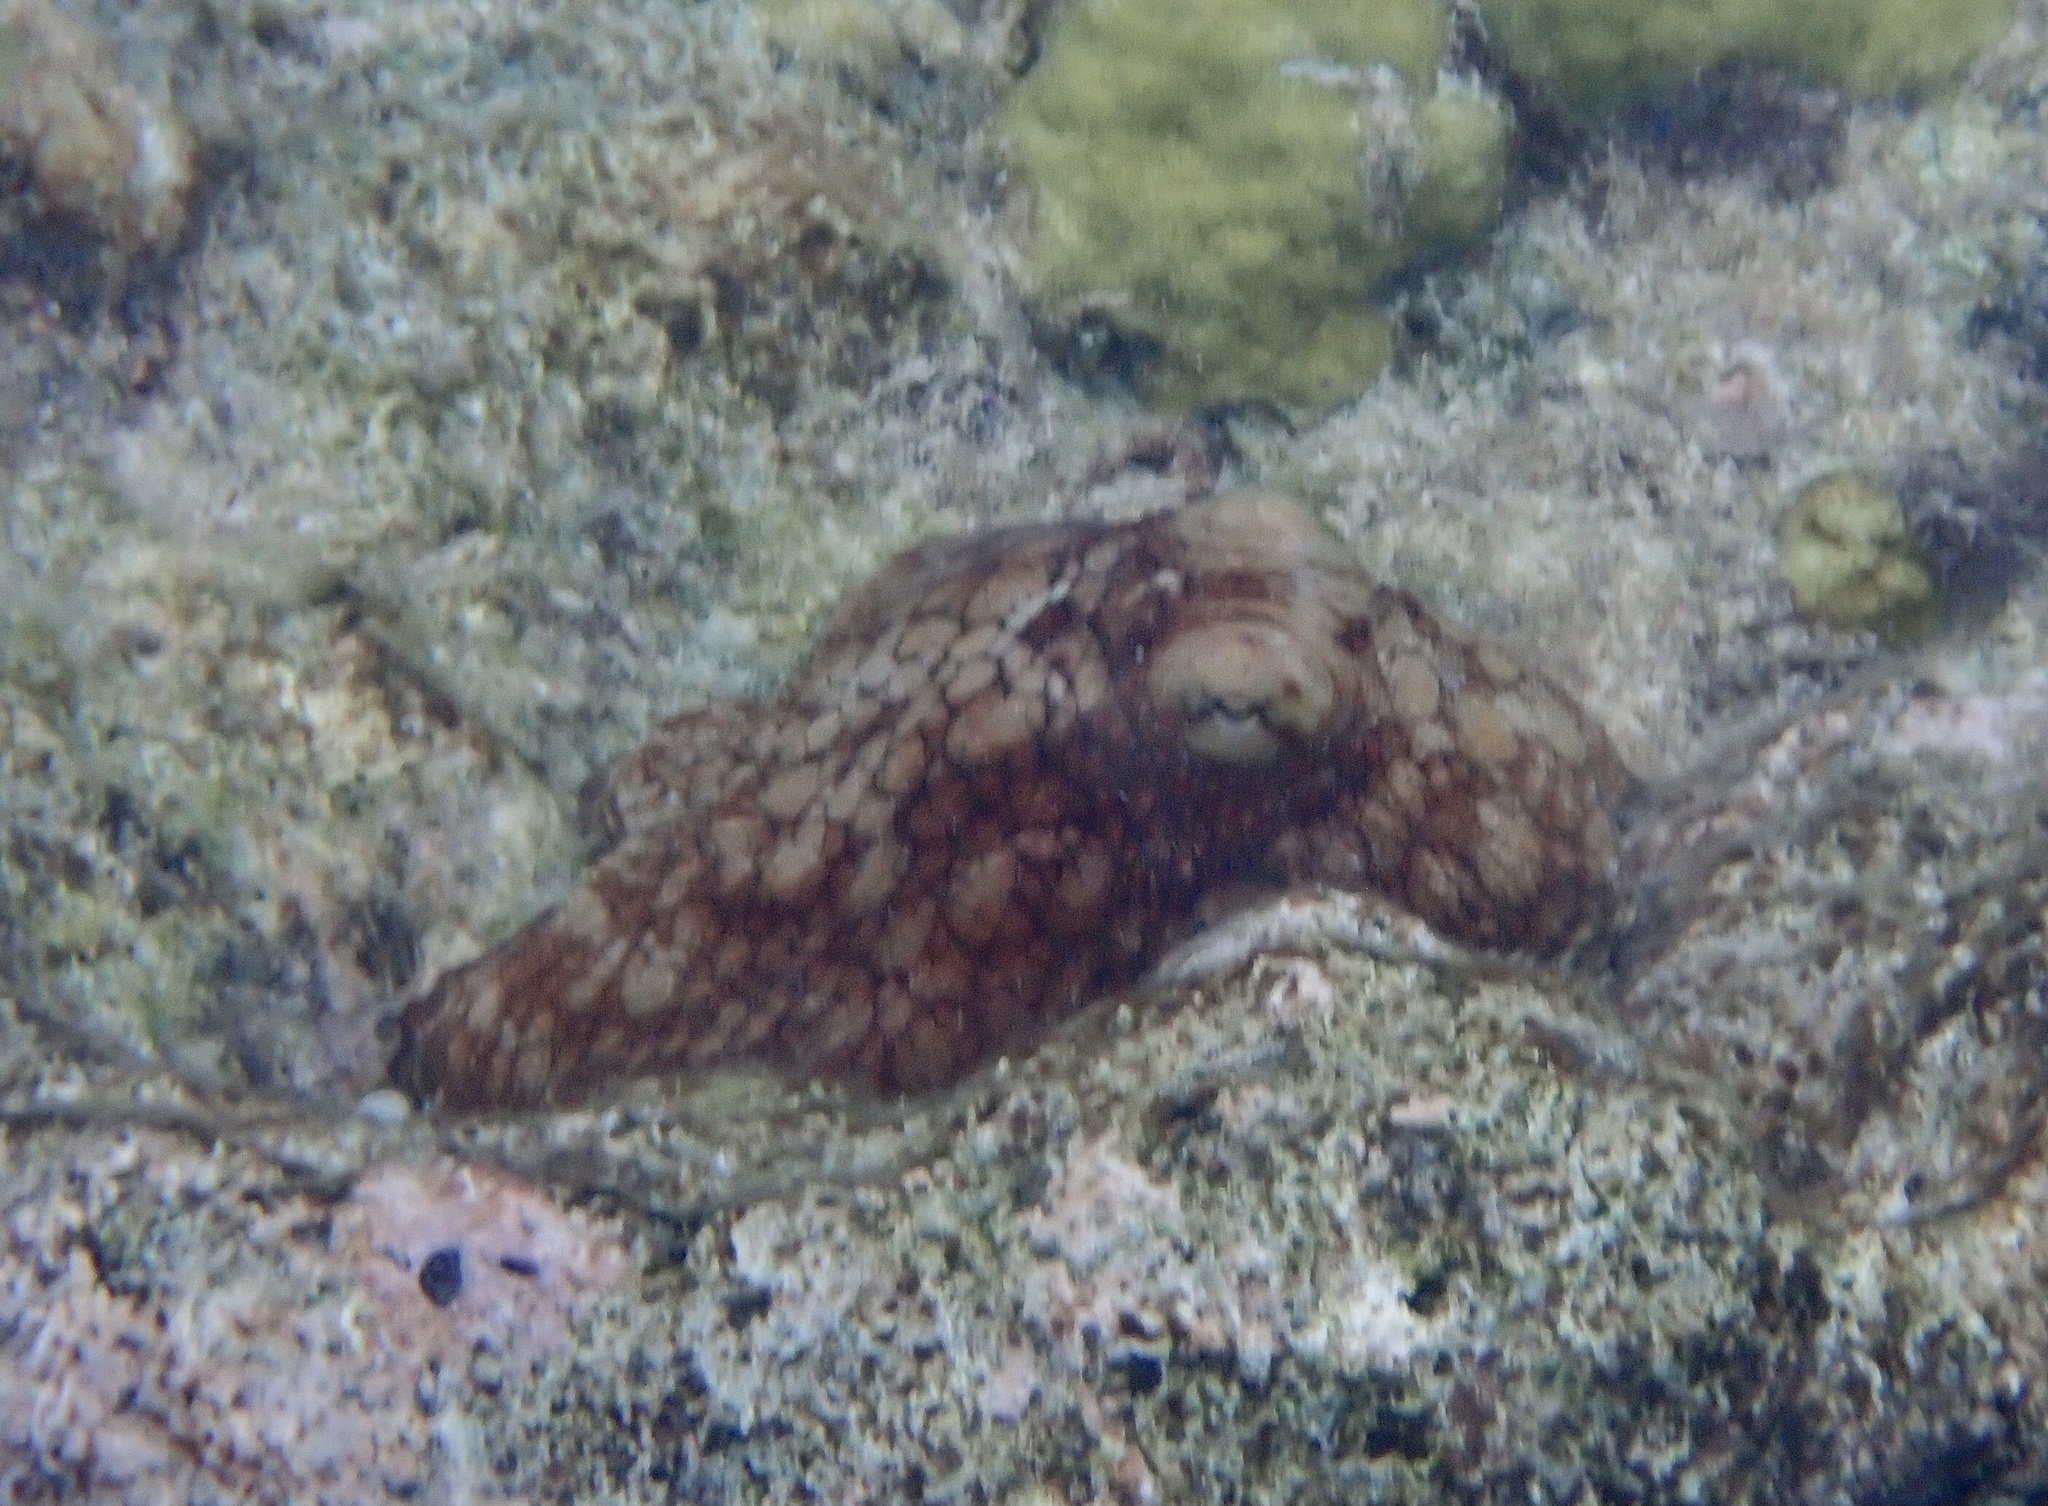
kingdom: Animalia
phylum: Mollusca
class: Cephalopoda
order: Octopoda
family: Octopodidae
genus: Octopus
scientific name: Octopus insularis
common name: Brazil reef octopus
